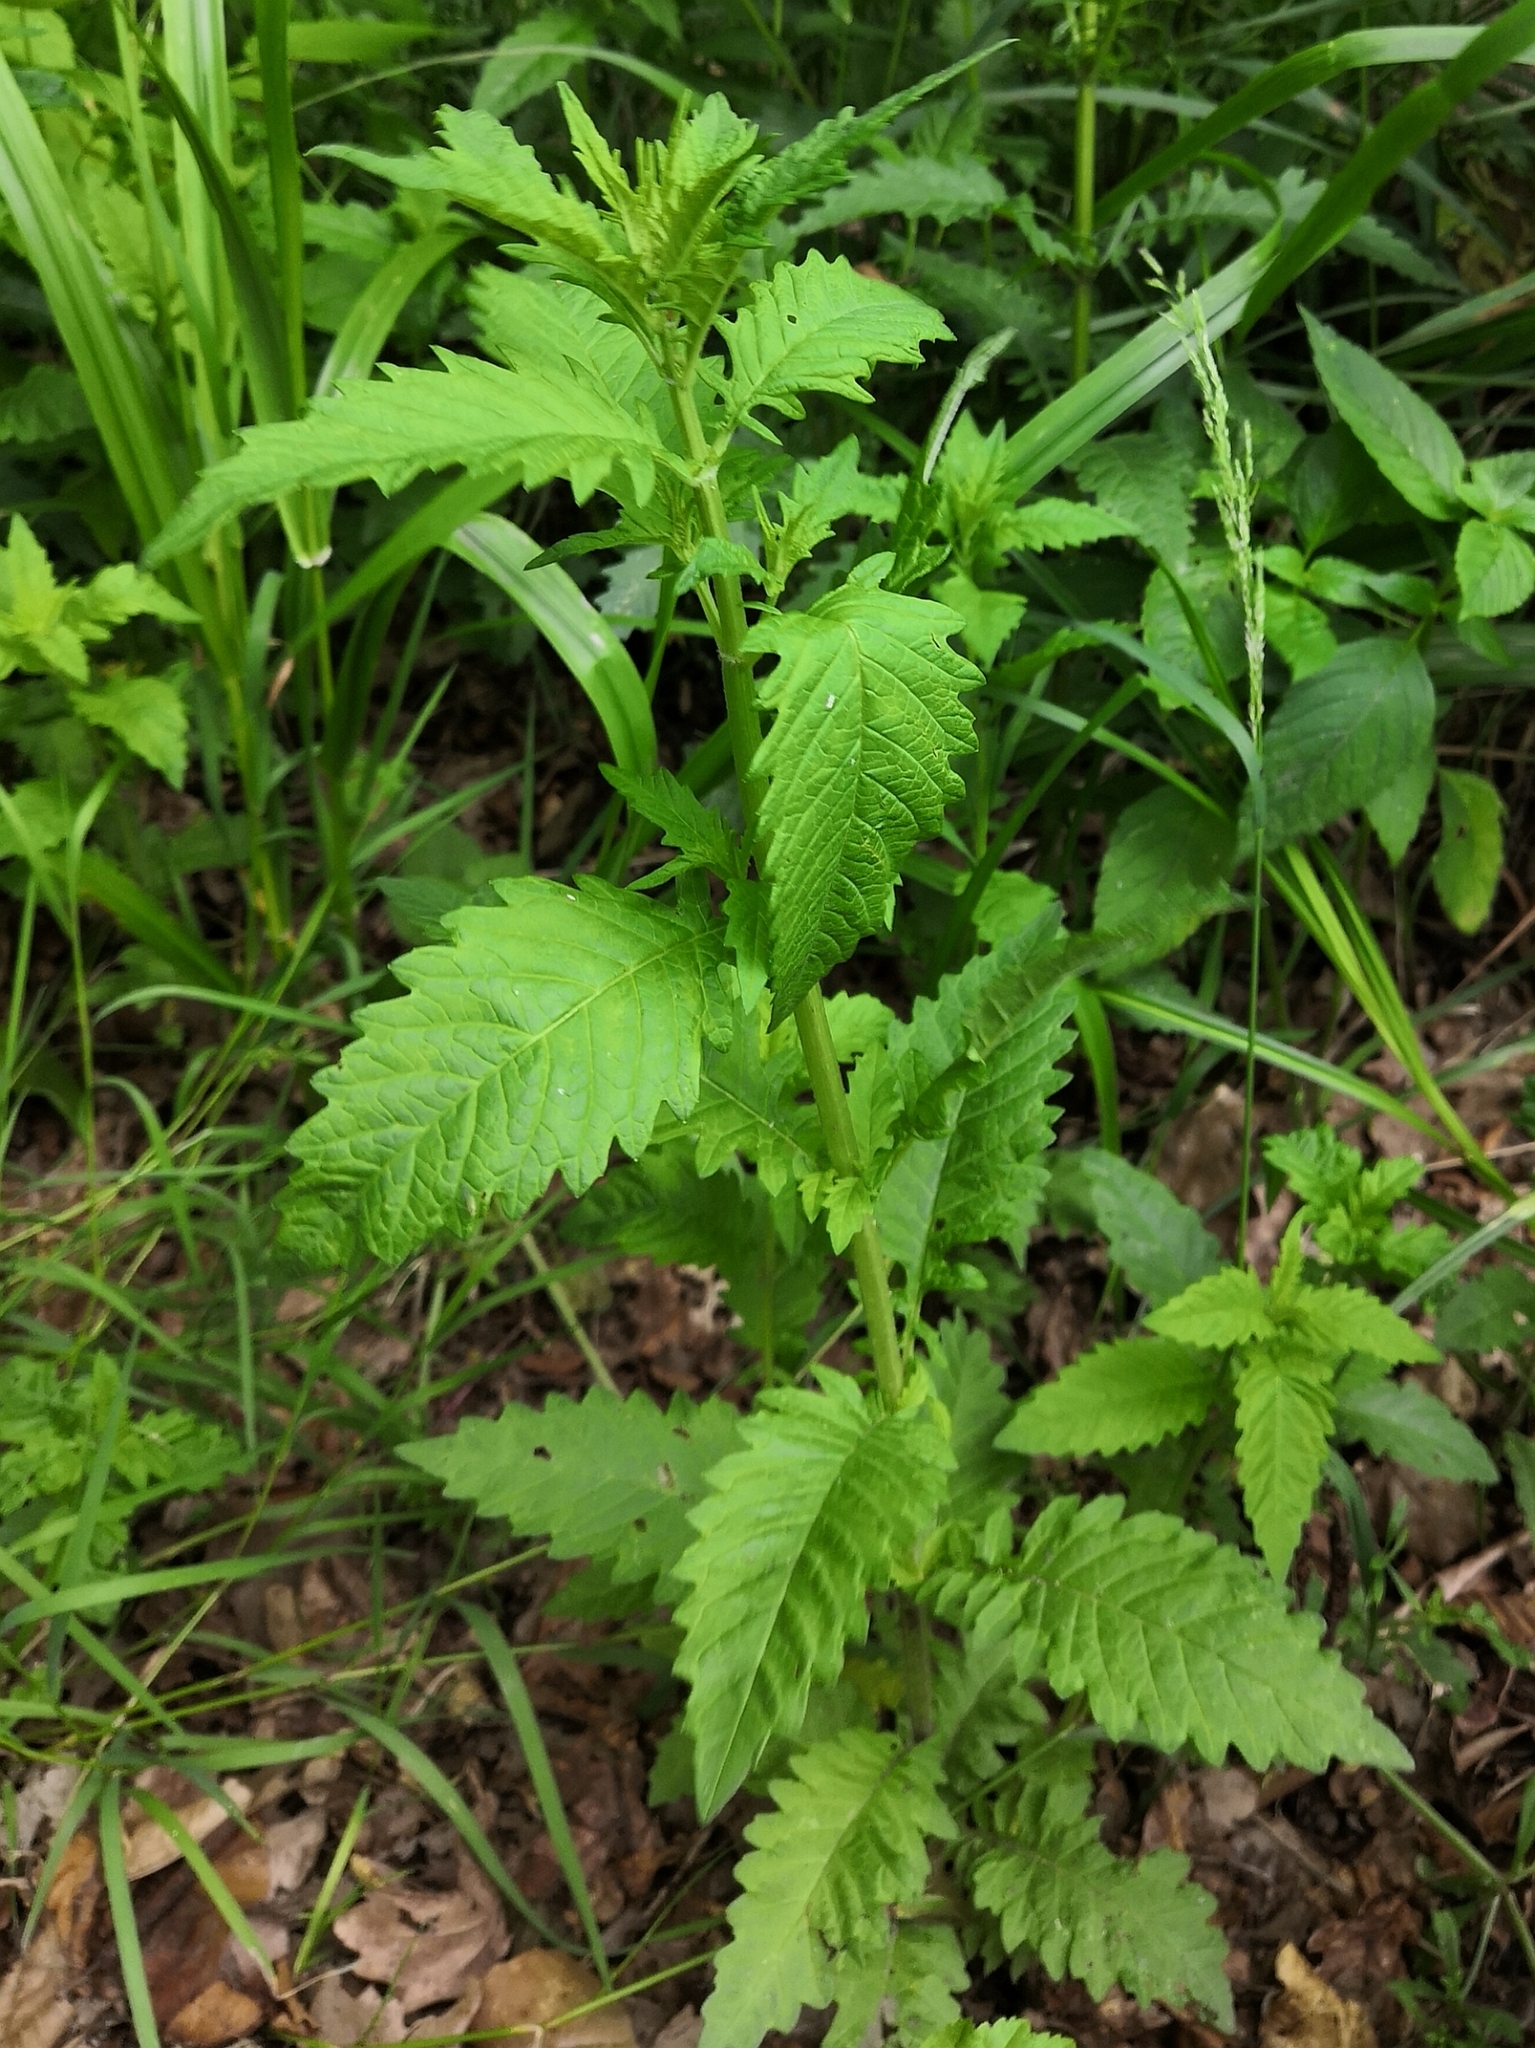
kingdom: Plantae
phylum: Tracheophyta
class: Magnoliopsida
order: Lamiales
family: Lamiaceae
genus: Lycopus
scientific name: Lycopus europaeus
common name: European bugleweed
